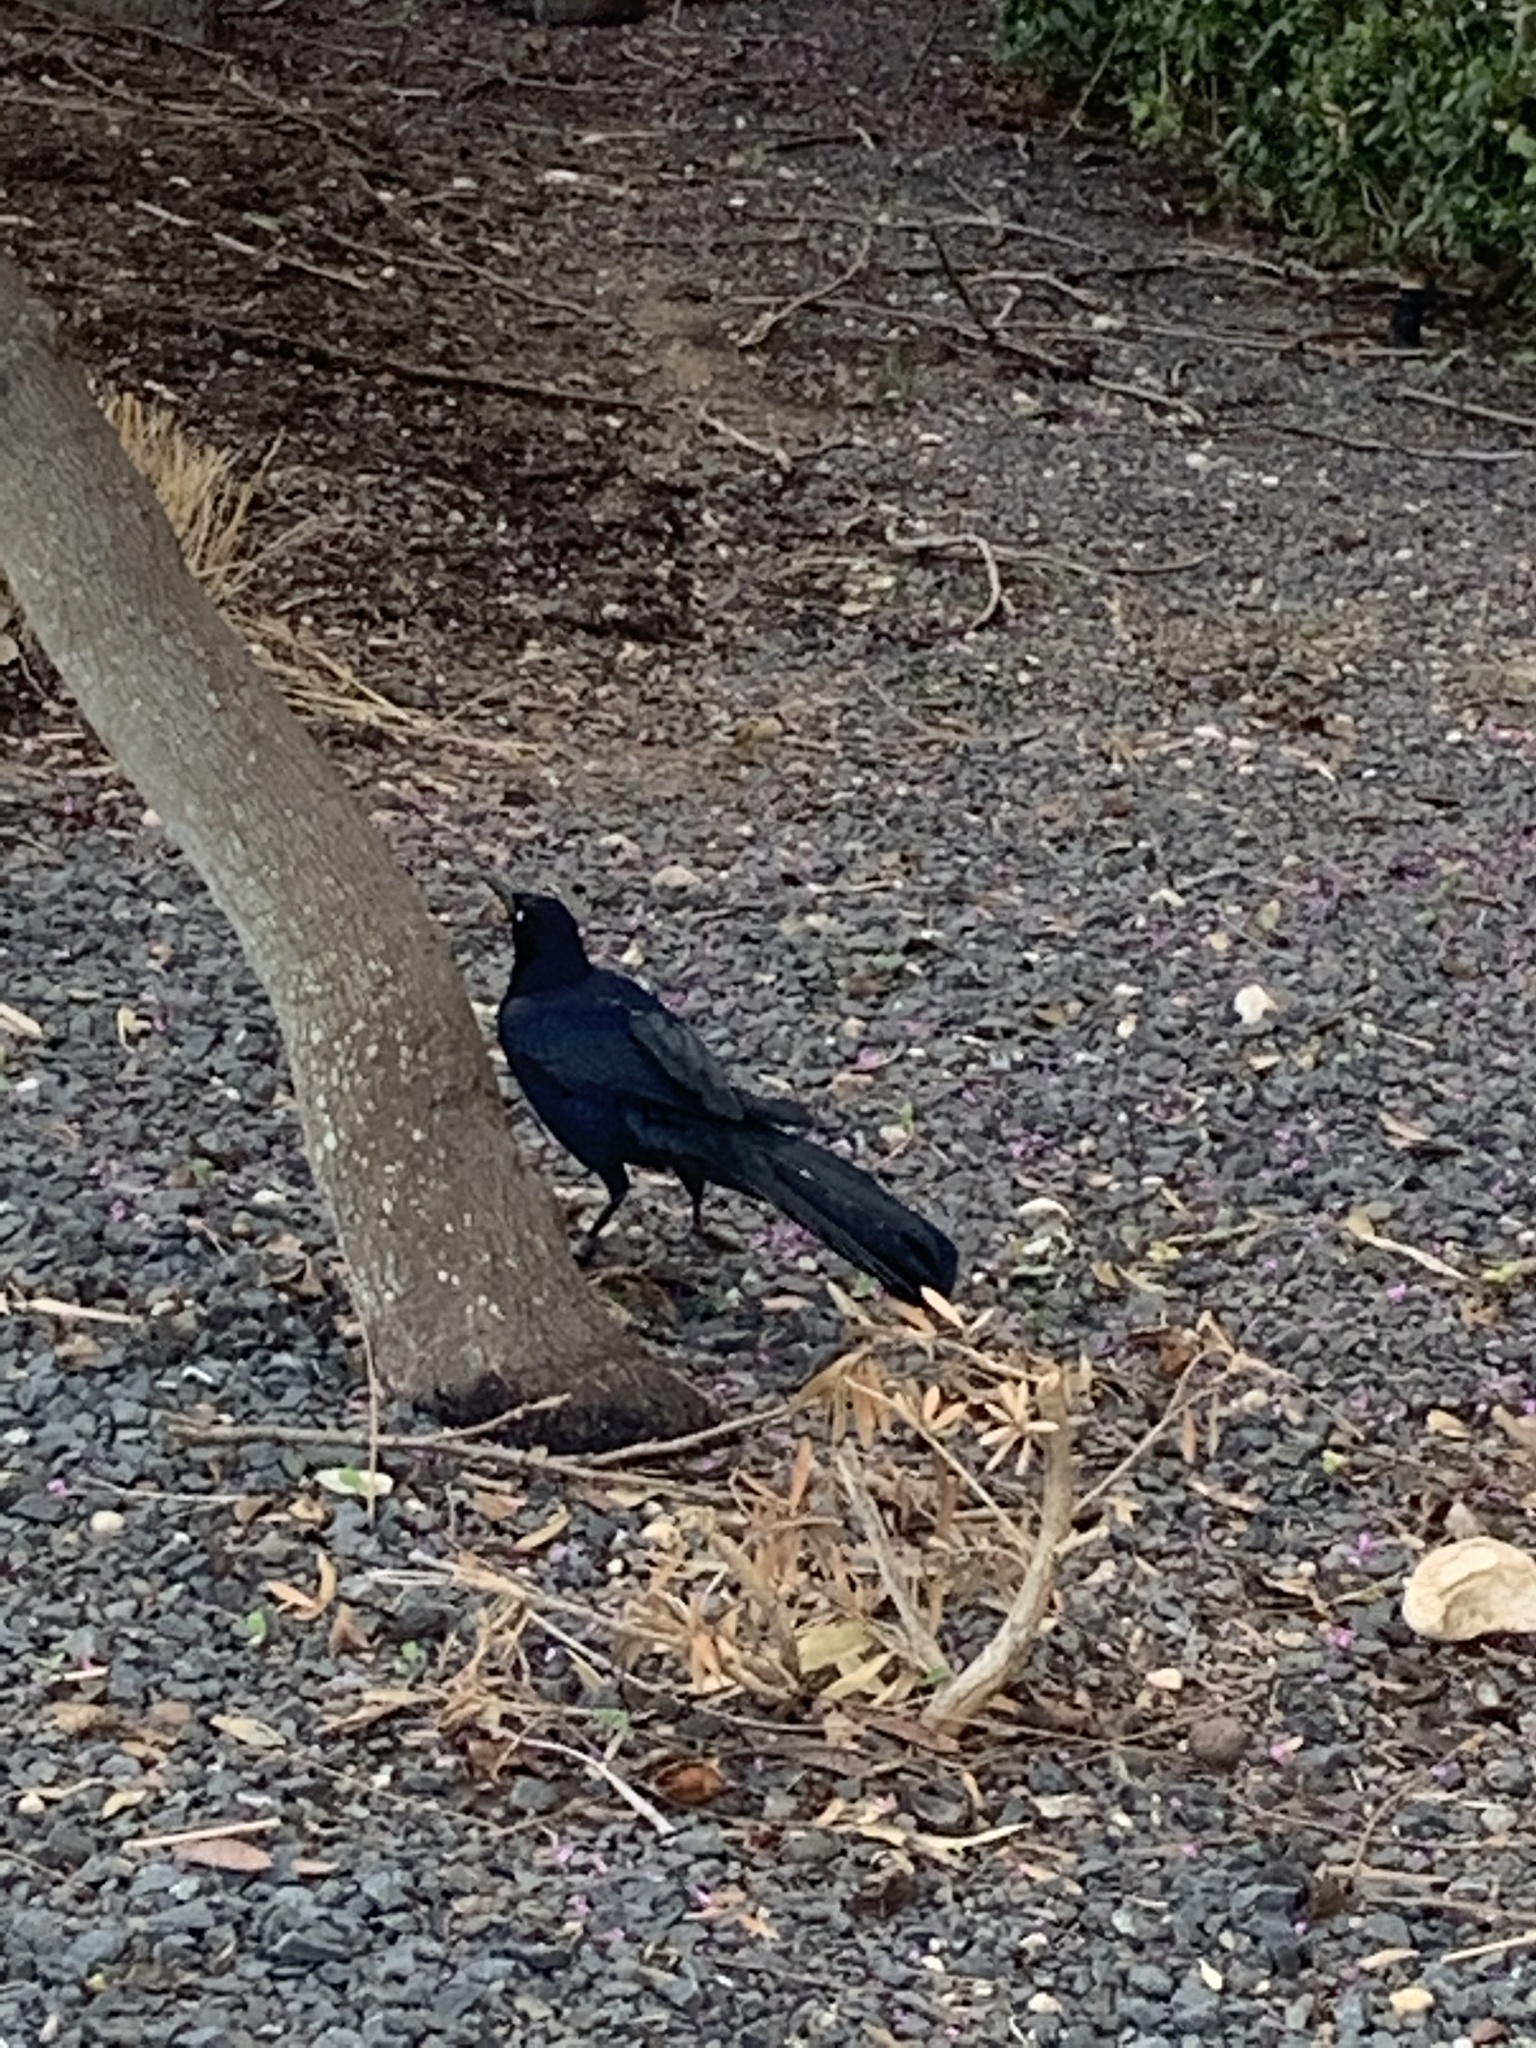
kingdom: Animalia
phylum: Chordata
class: Aves
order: Passeriformes
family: Icteridae
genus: Quiscalus
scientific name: Quiscalus mexicanus
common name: Great-tailed grackle
